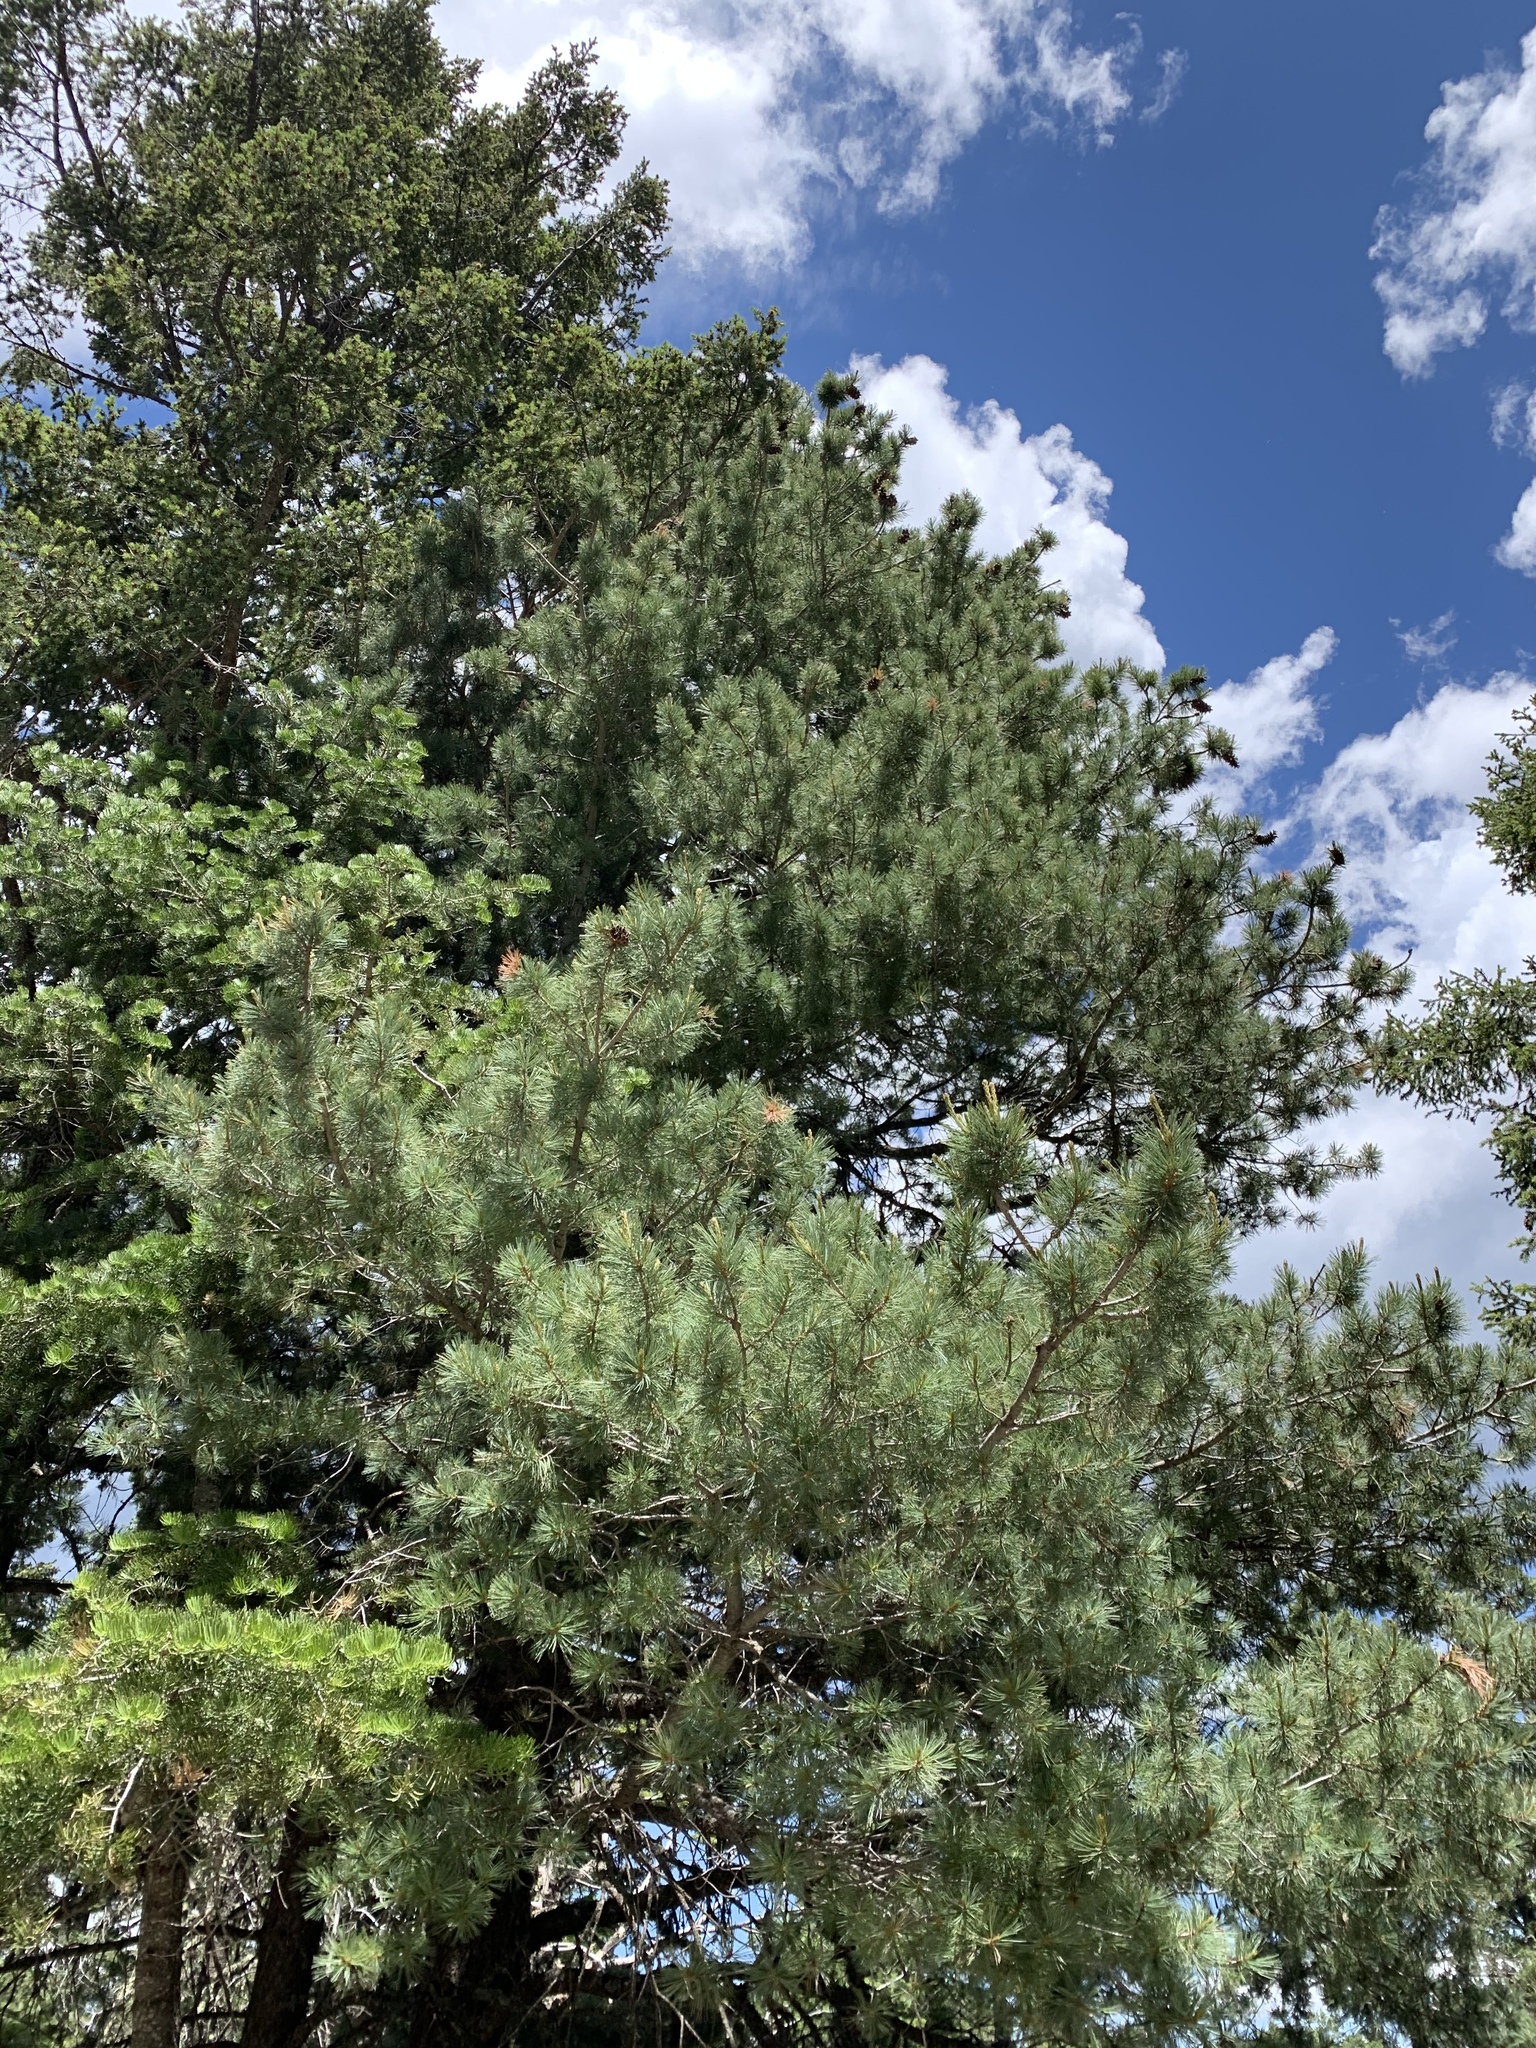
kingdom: Plantae
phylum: Tracheophyta
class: Pinopsida
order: Pinales
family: Pinaceae
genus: Pinus
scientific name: Pinus strobiformis
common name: Southwestern white pine
